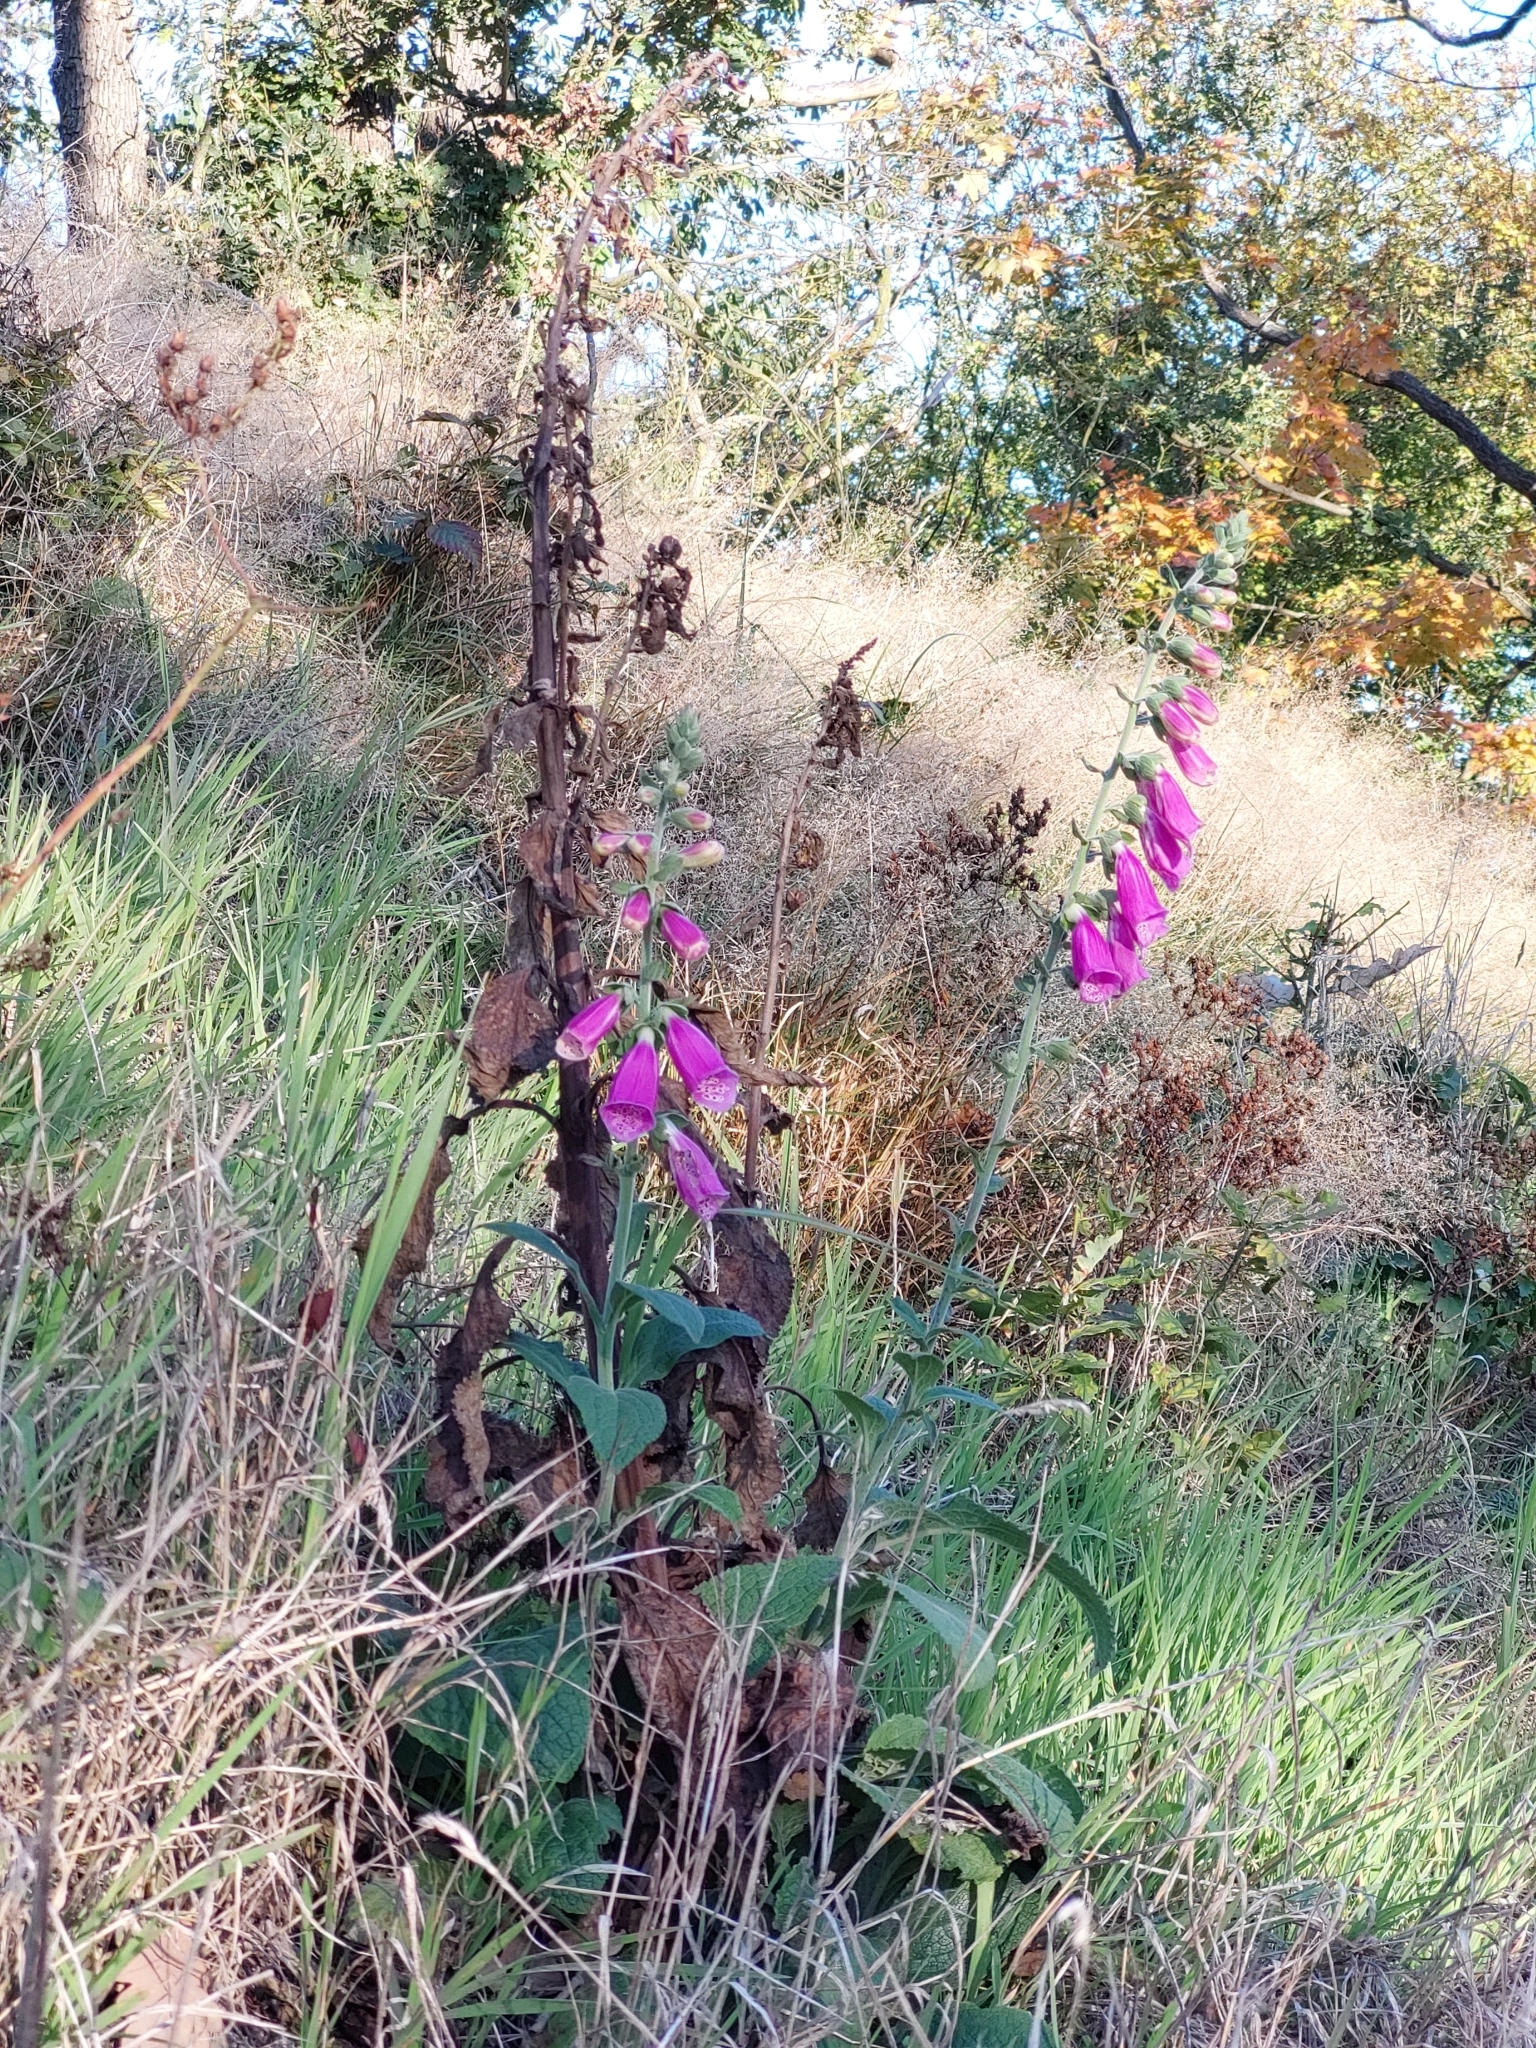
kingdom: Plantae
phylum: Tracheophyta
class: Magnoliopsida
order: Lamiales
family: Plantaginaceae
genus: Digitalis
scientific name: Digitalis purpurea
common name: Foxglove
